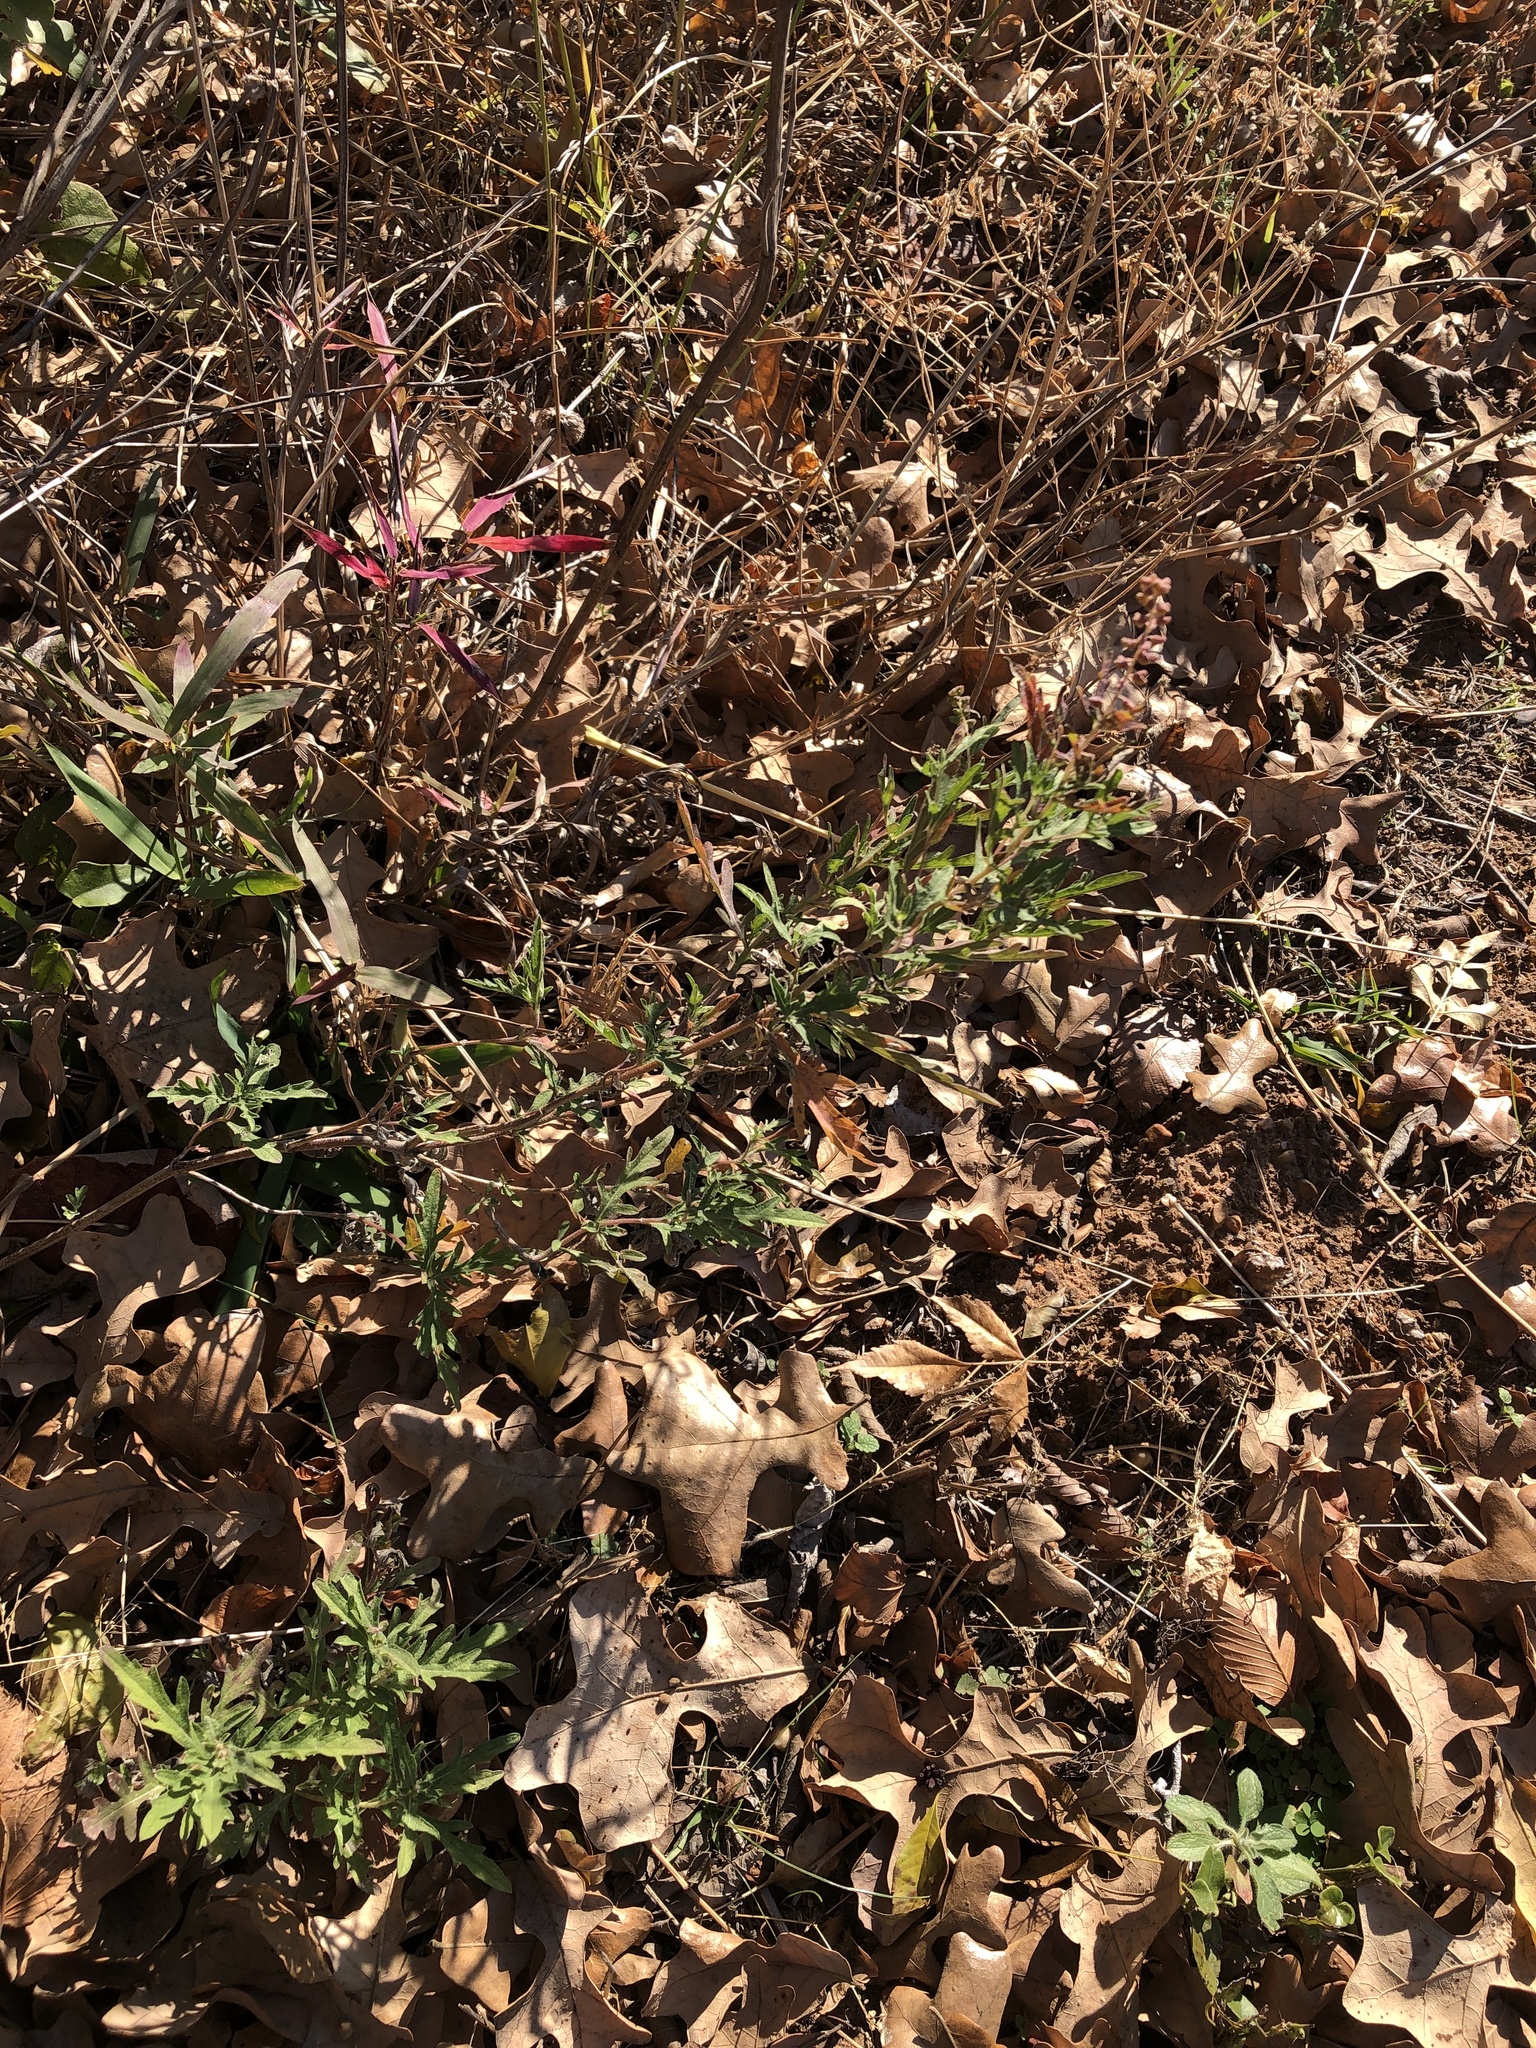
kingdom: Plantae
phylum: Tracheophyta
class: Magnoliopsida
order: Asterales
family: Asteraceae
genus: Ambrosia
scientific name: Ambrosia psilostachya
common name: Perennial ragweed
